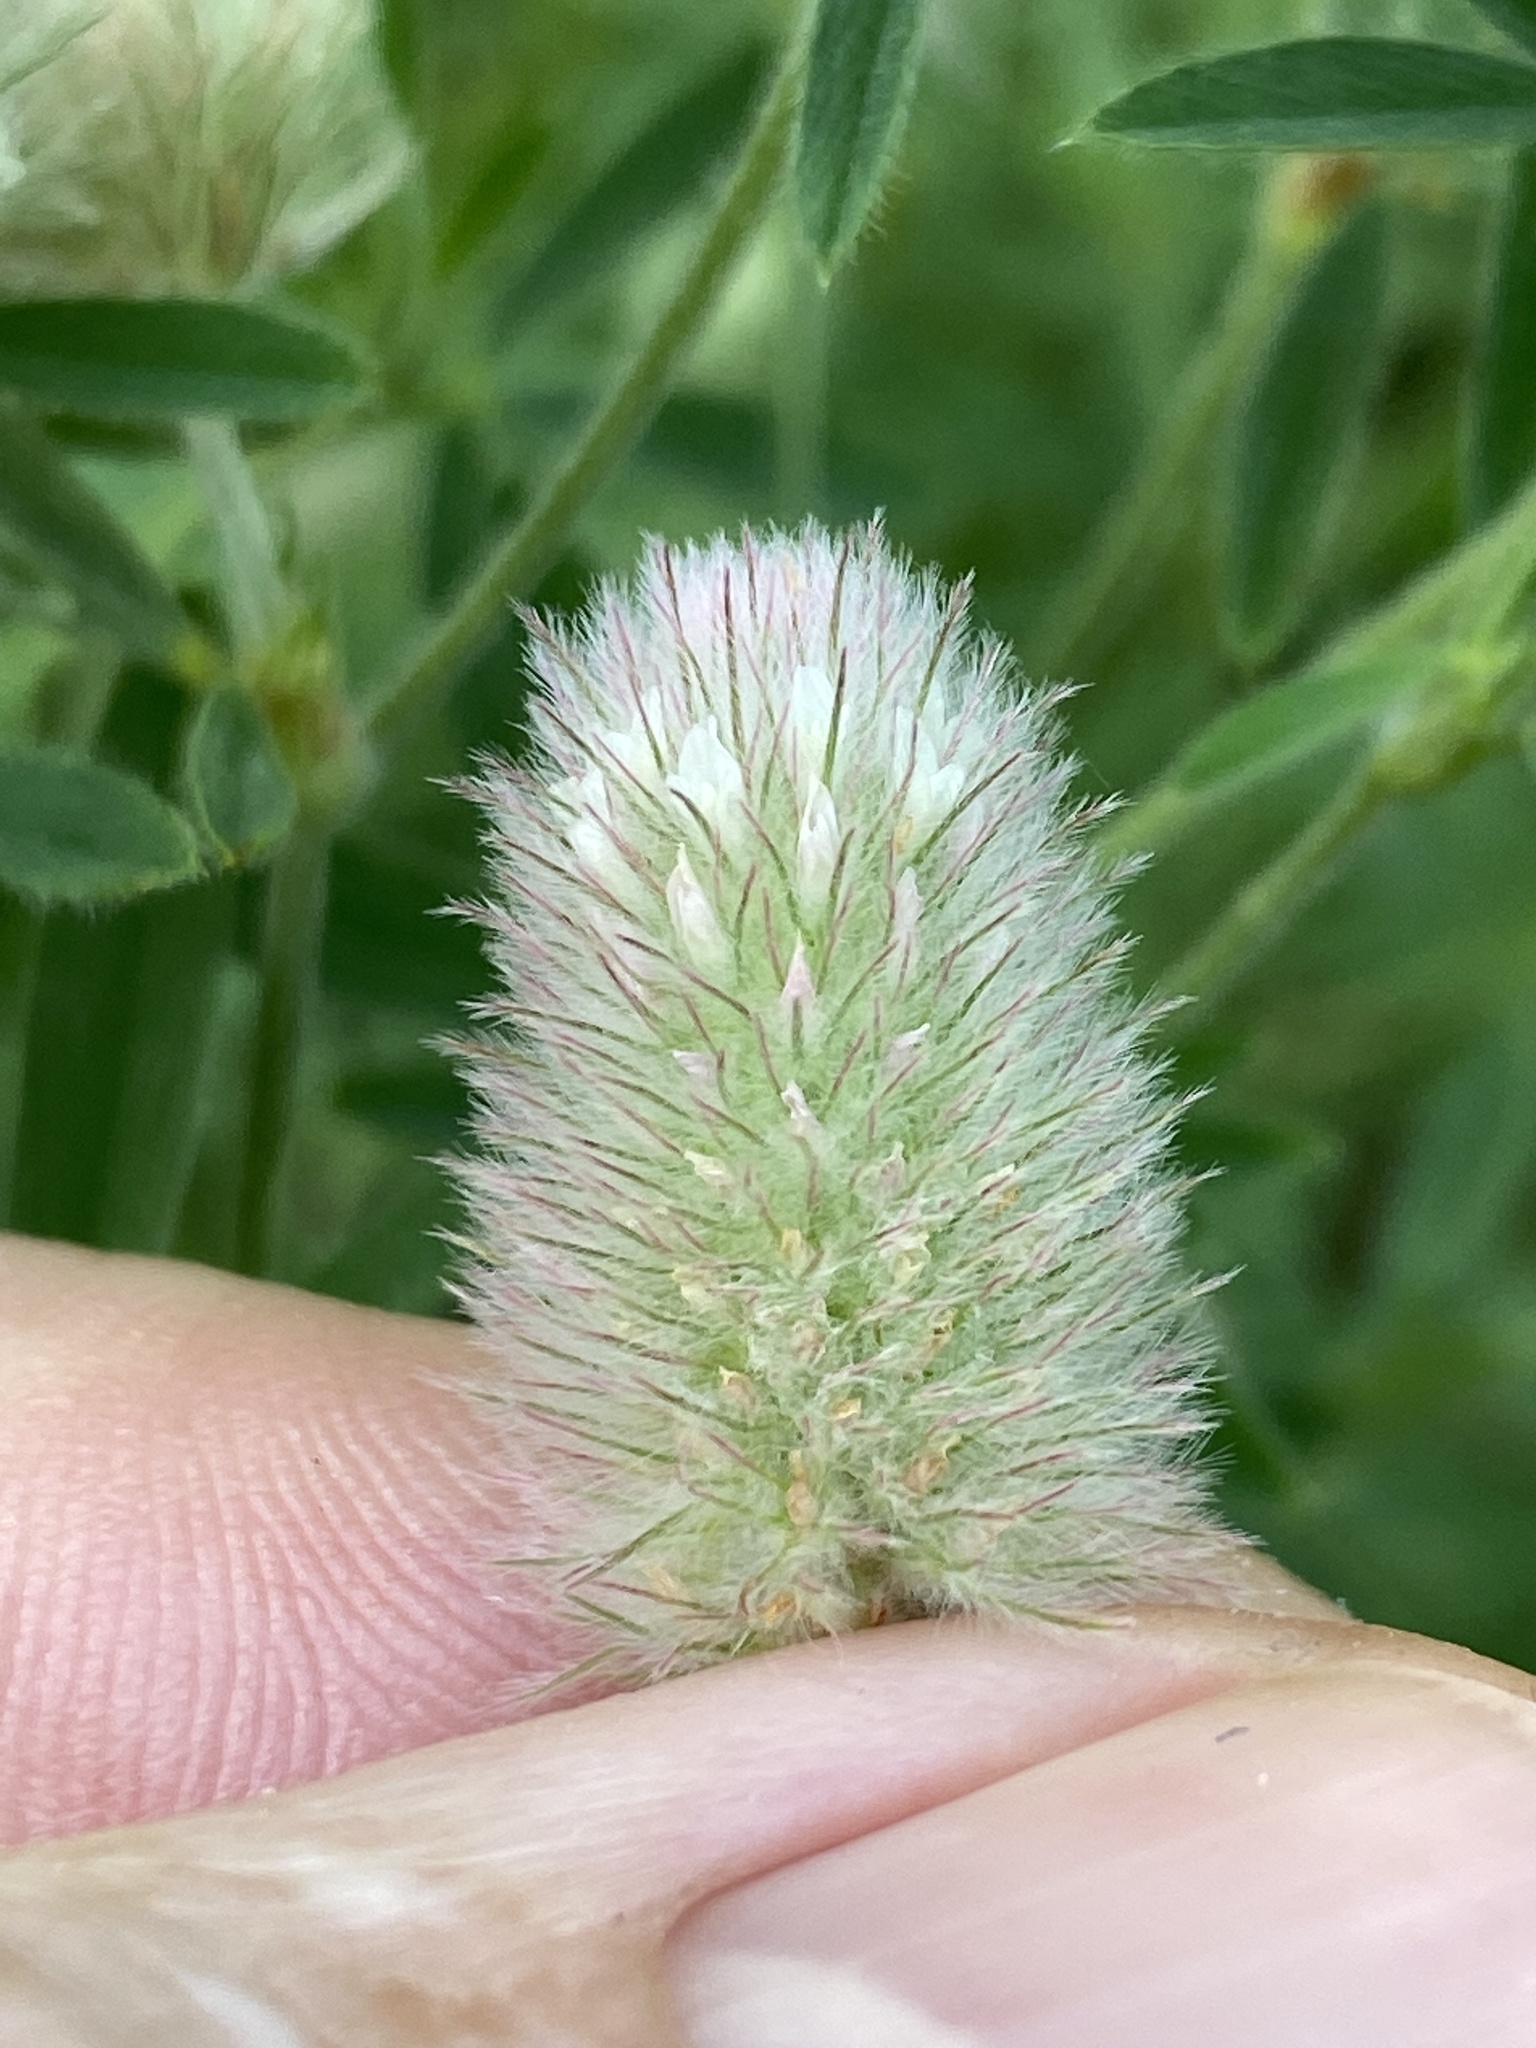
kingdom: Plantae
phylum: Tracheophyta
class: Magnoliopsida
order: Fabales
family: Fabaceae
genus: Trifolium
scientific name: Trifolium arvense
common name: Hare's-foot clover
